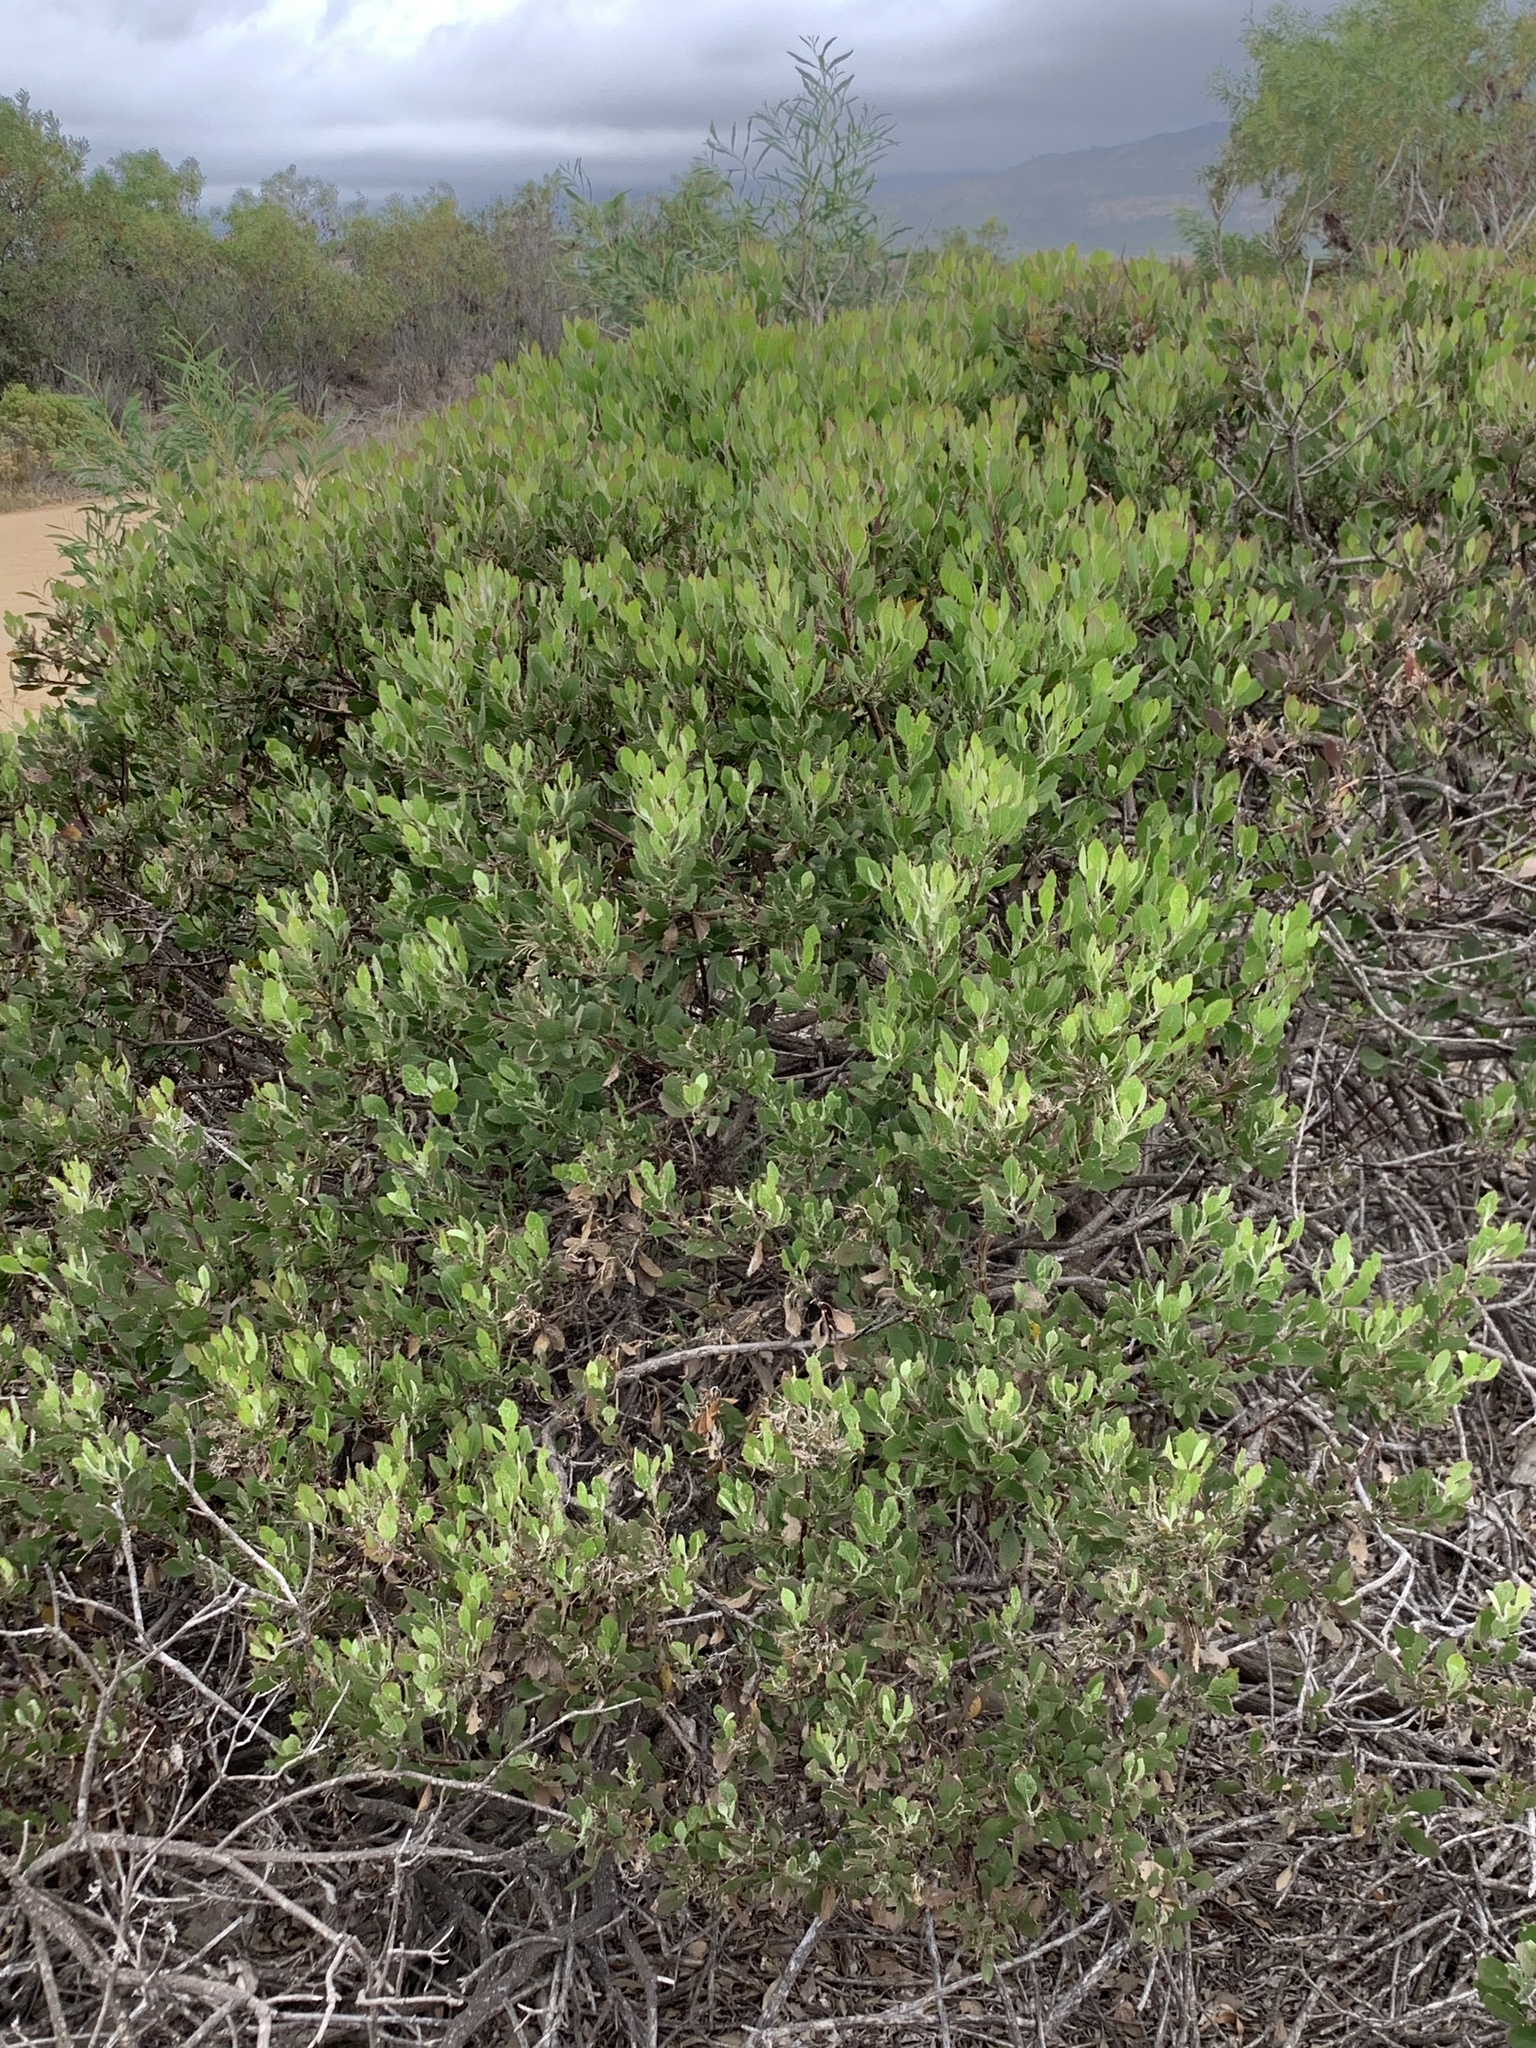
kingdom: Plantae
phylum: Tracheophyta
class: Magnoliopsida
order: Asterales
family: Asteraceae
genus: Osteospermum
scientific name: Osteospermum moniliferum
